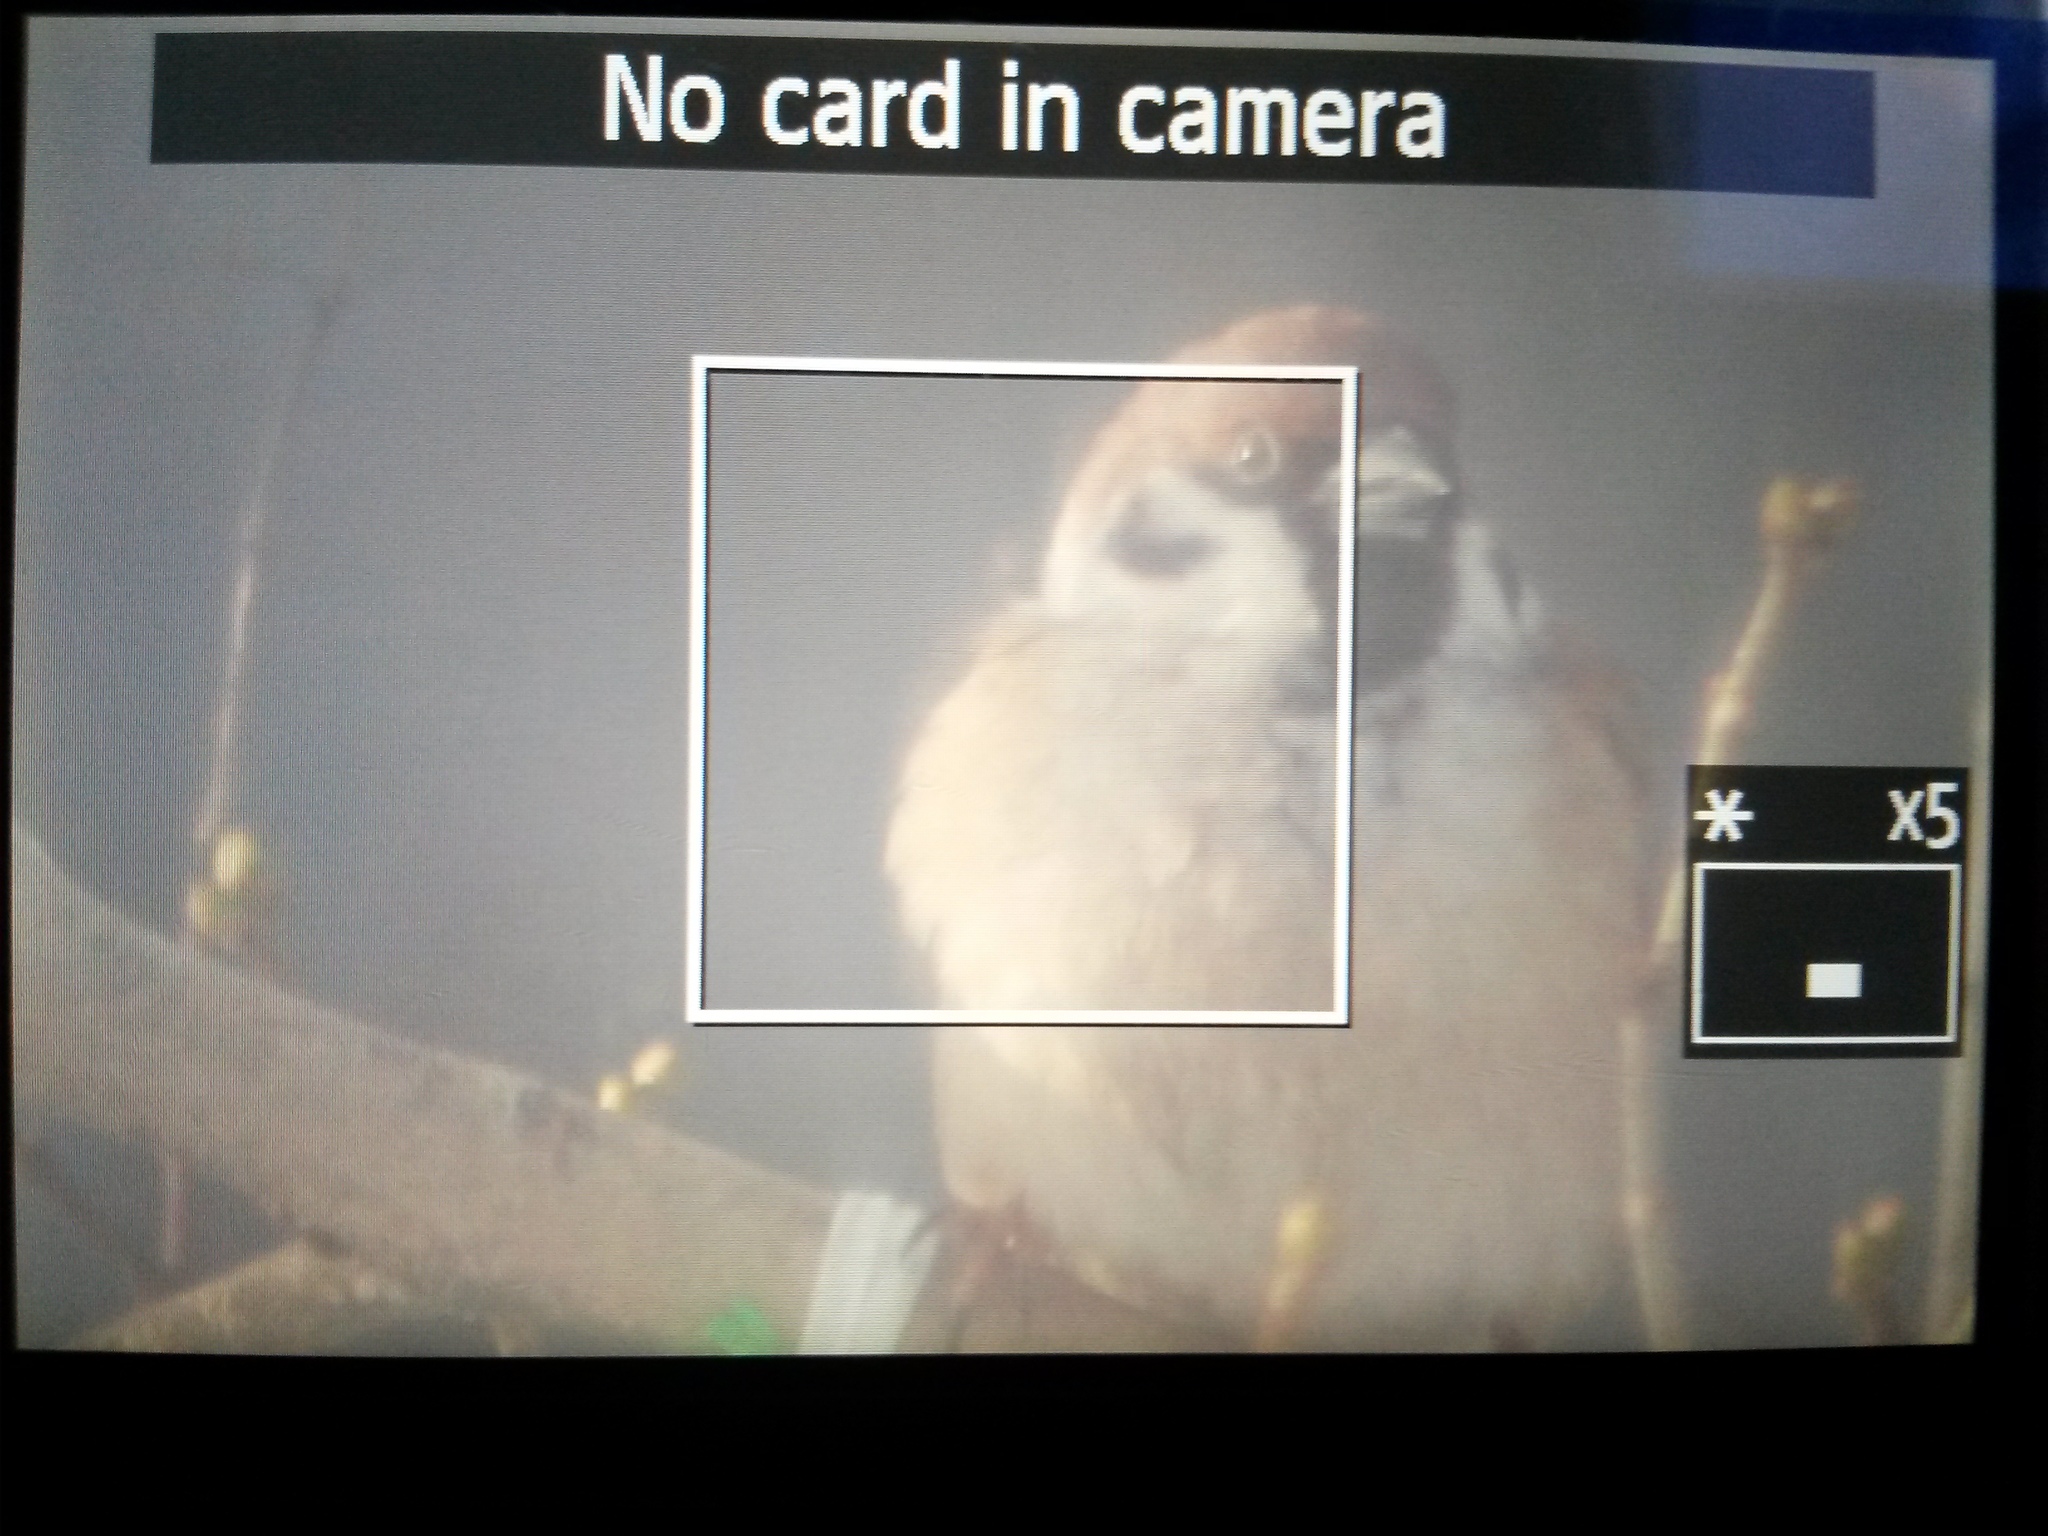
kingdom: Animalia
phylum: Chordata
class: Aves
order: Passeriformes
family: Passeridae
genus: Passer
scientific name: Passer montanus
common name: Eurasian tree sparrow
